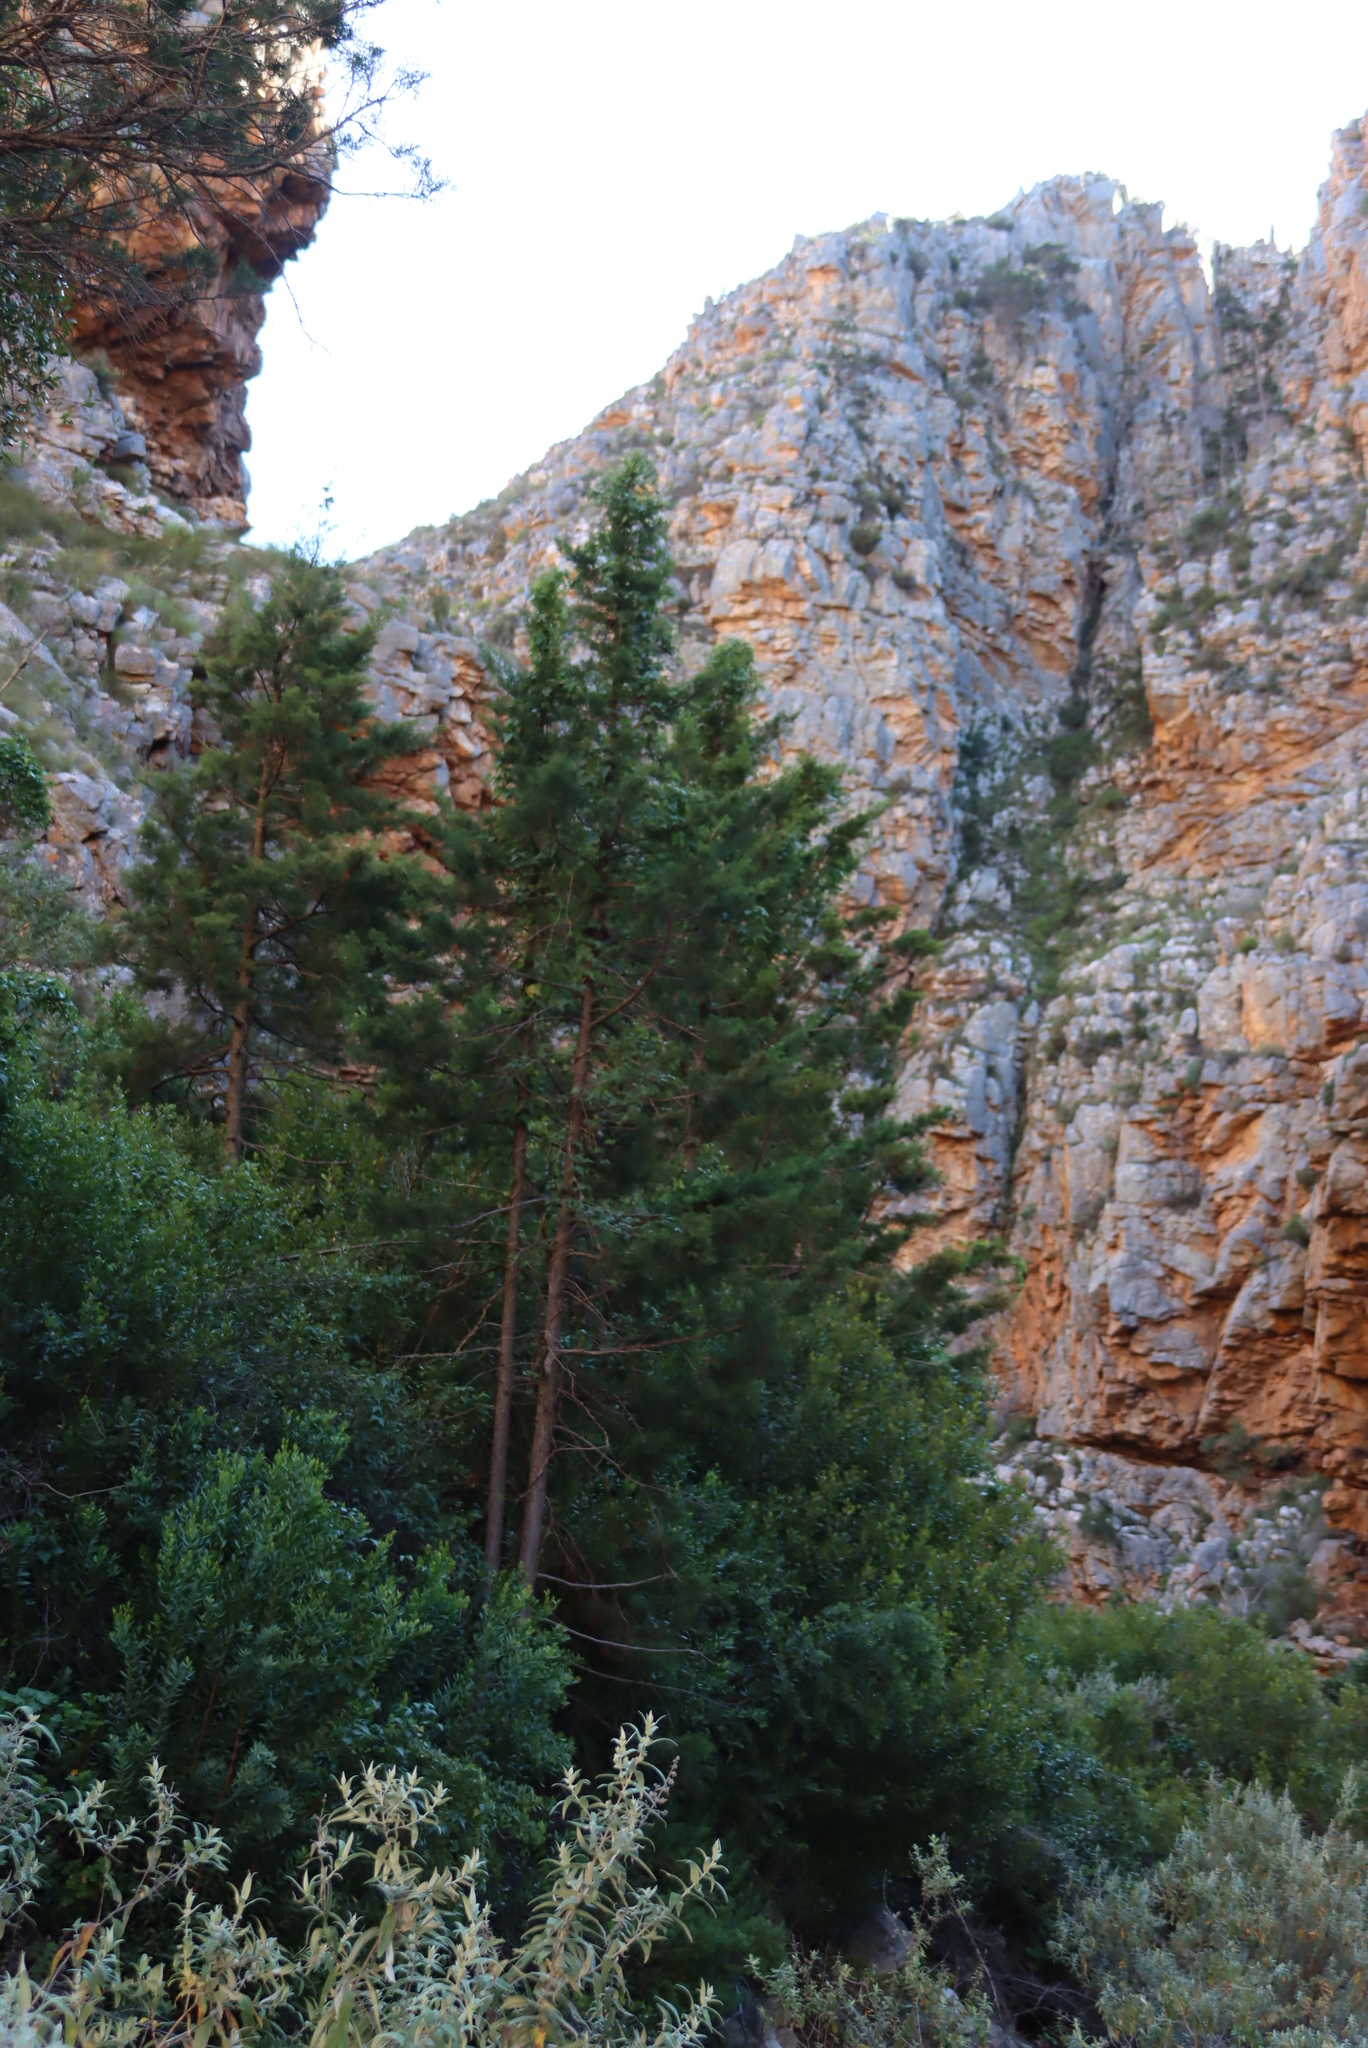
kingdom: Plantae
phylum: Tracheophyta
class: Pinopsida
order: Pinales
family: Cupressaceae
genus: Widdringtonia
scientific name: Widdringtonia schwarzii
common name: Baviaans cedar
